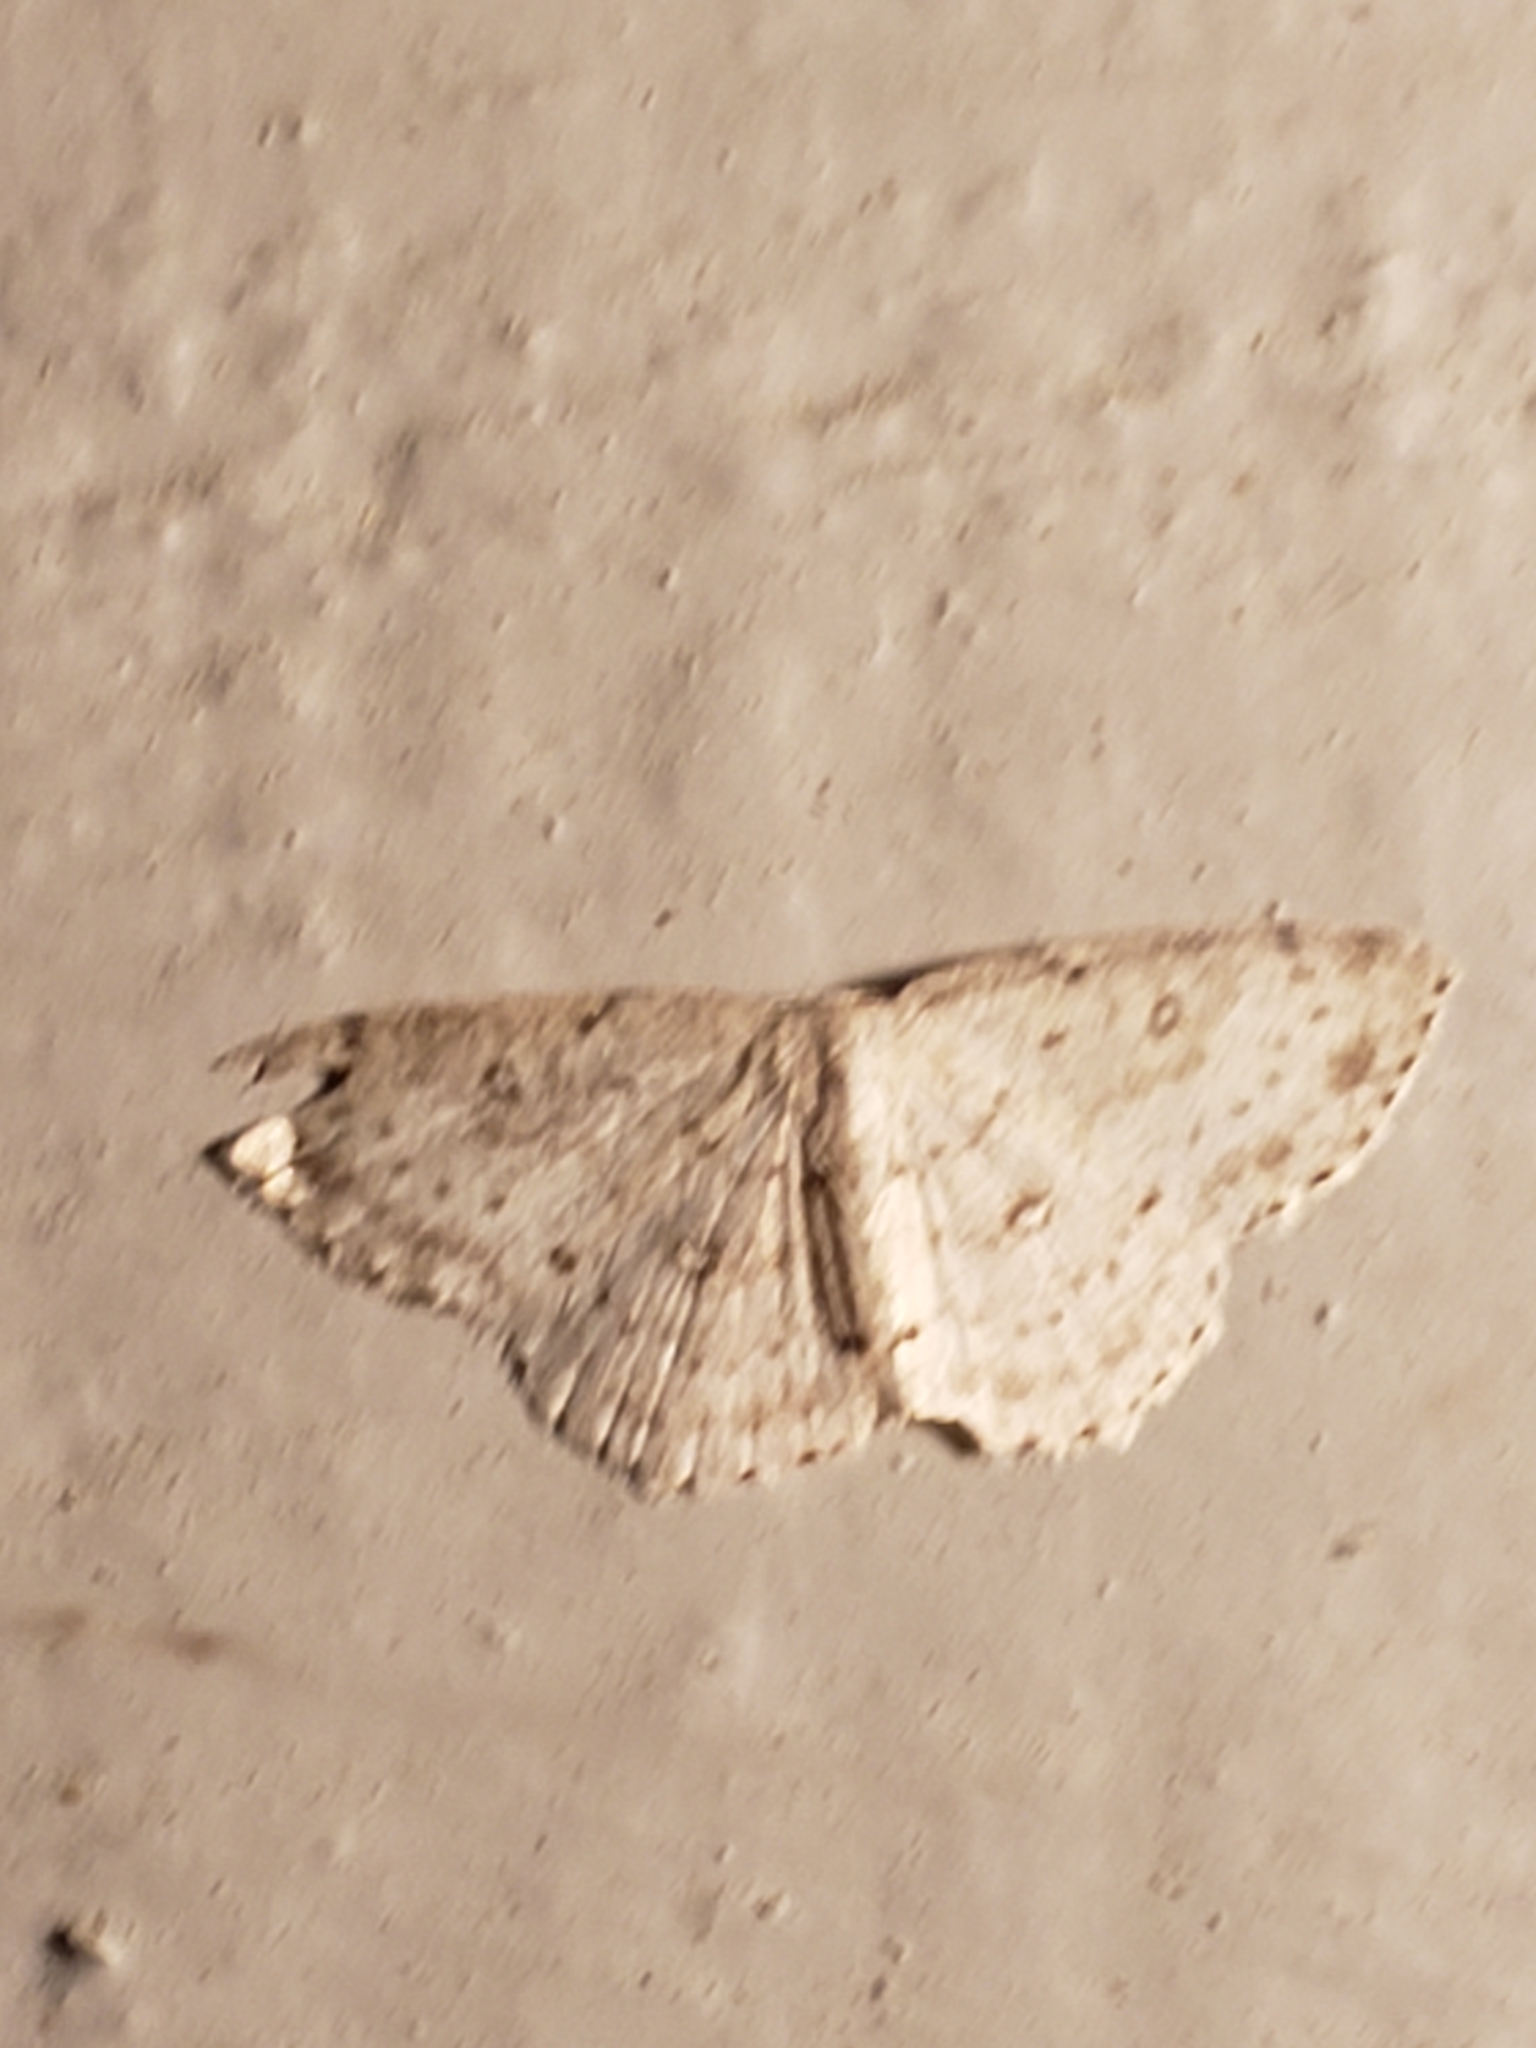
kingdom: Animalia
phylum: Arthropoda
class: Insecta
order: Lepidoptera
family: Geometridae
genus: Cyclophora
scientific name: Cyclophora pendulinaria
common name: Sweet fern geometer
